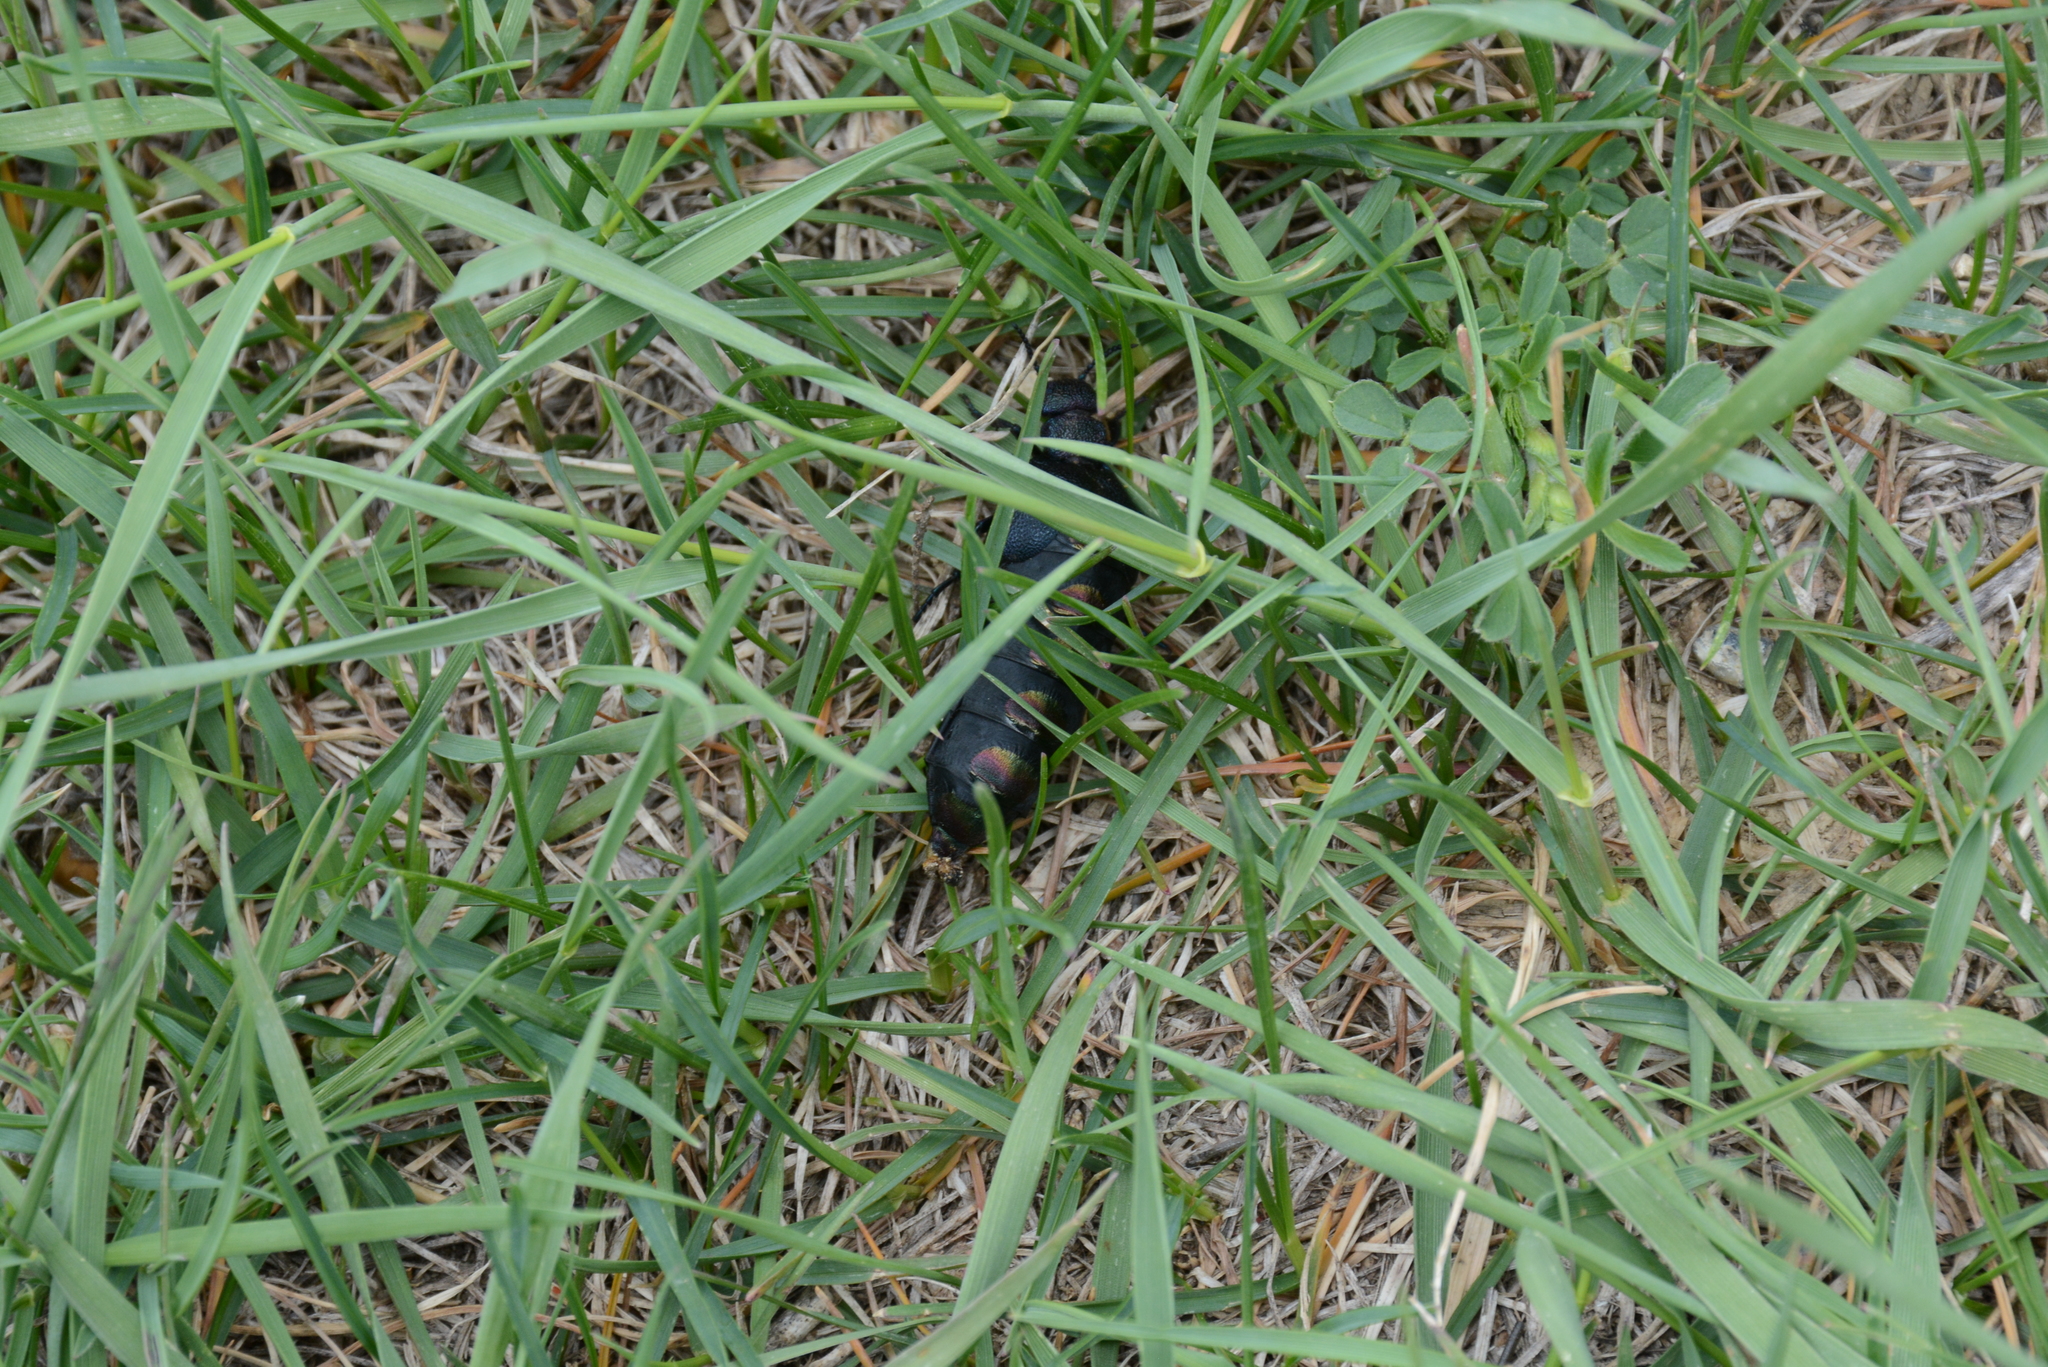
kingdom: Animalia
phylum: Arthropoda
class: Insecta
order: Coleoptera
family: Meloidae
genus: Meloe
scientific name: Meloe variegatus
